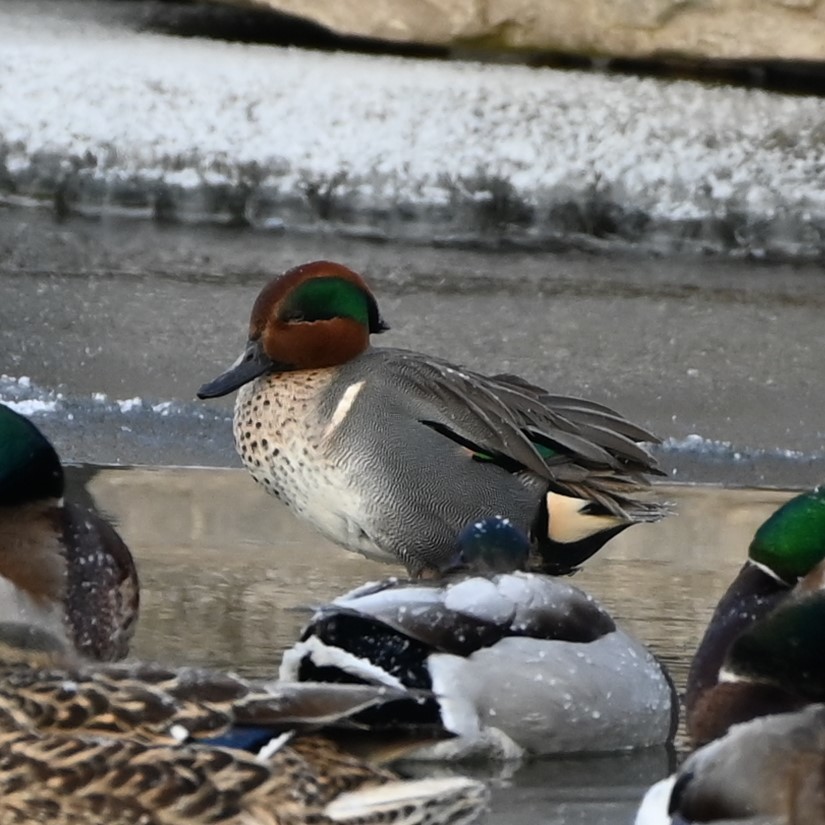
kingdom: Animalia
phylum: Chordata
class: Aves
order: Anseriformes
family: Anatidae
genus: Anas
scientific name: Anas crecca
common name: Eurasian teal
